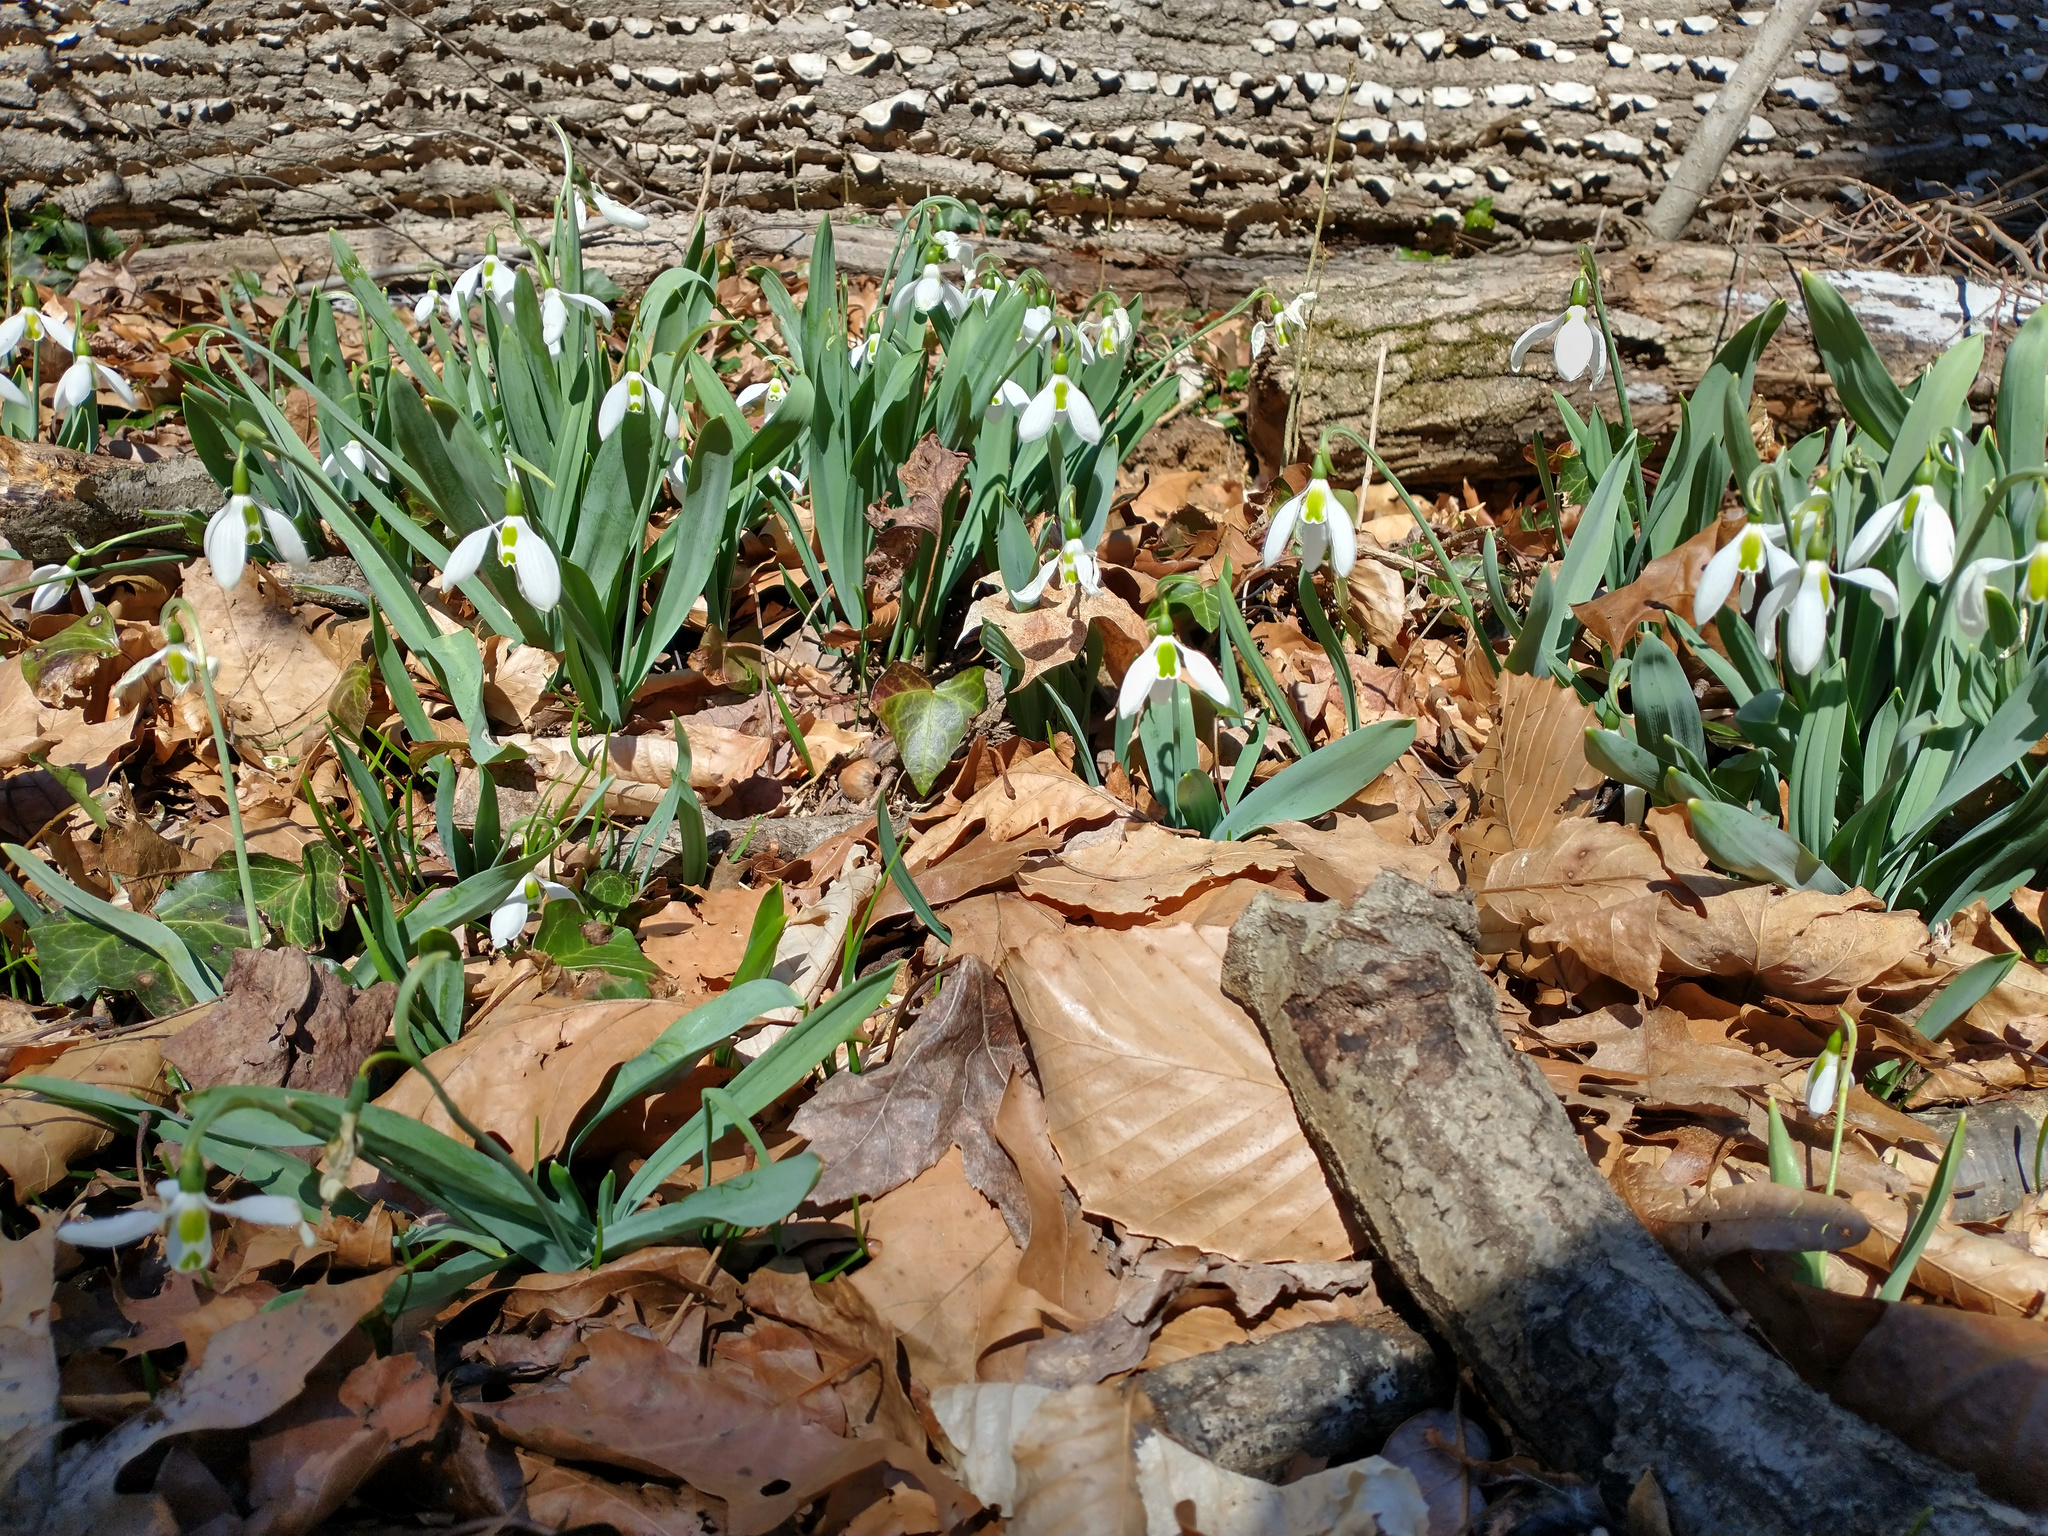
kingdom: Plantae
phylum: Tracheophyta
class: Liliopsida
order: Asparagales
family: Amaryllidaceae
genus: Galanthus
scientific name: Galanthus elwesii
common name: Greater snowdrop
